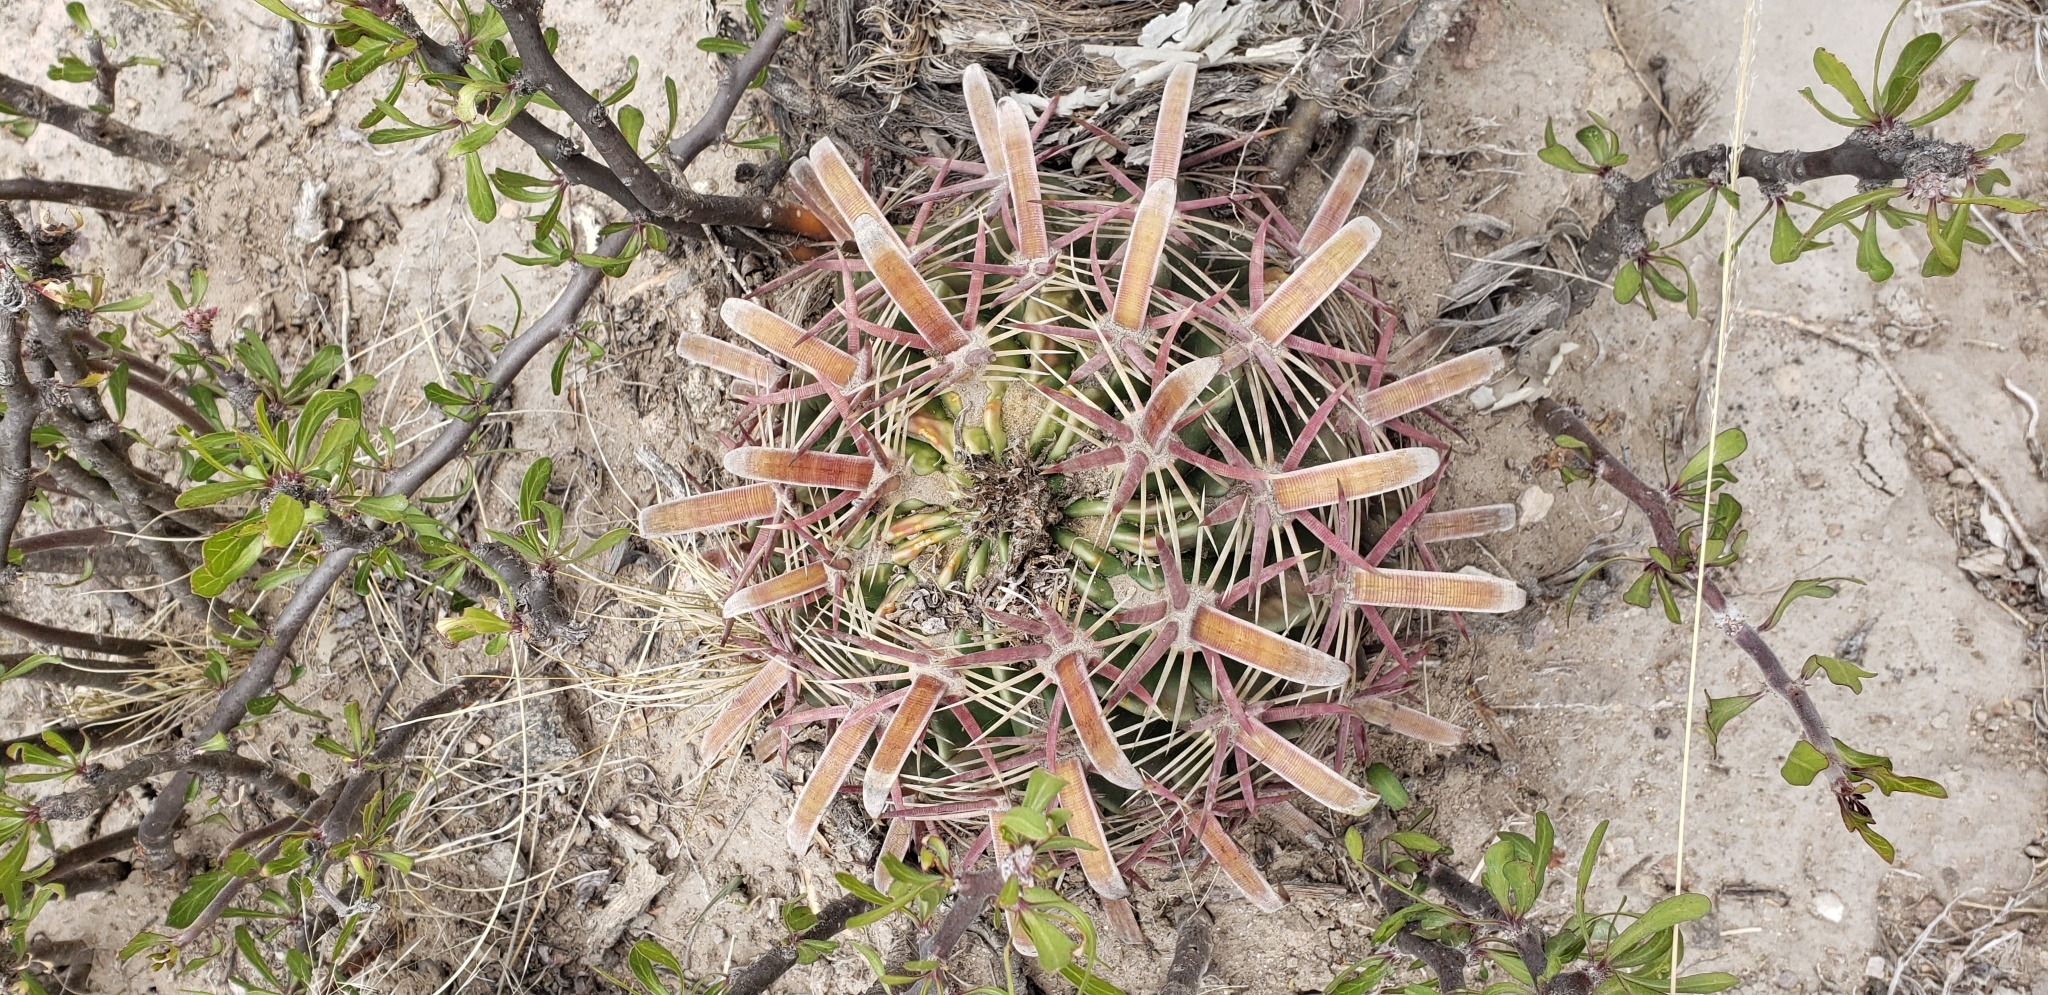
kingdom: Plantae
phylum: Tracheophyta
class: Magnoliopsida
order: Caryophyllales
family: Cactaceae
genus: Ferocactus
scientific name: Ferocactus latispinus
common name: Devil's-tongue cactus
